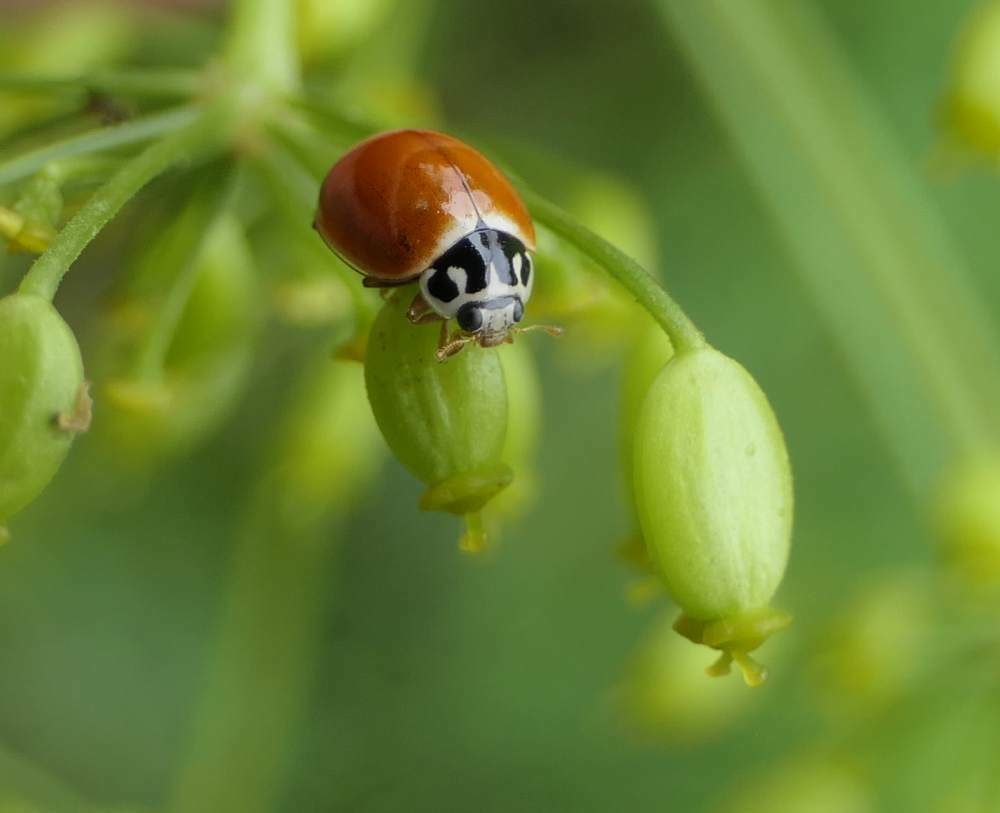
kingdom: Animalia
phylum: Arthropoda
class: Insecta
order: Coleoptera
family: Coccinellidae
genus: Cycloneda
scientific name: Cycloneda munda
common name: Polished lady beetle
